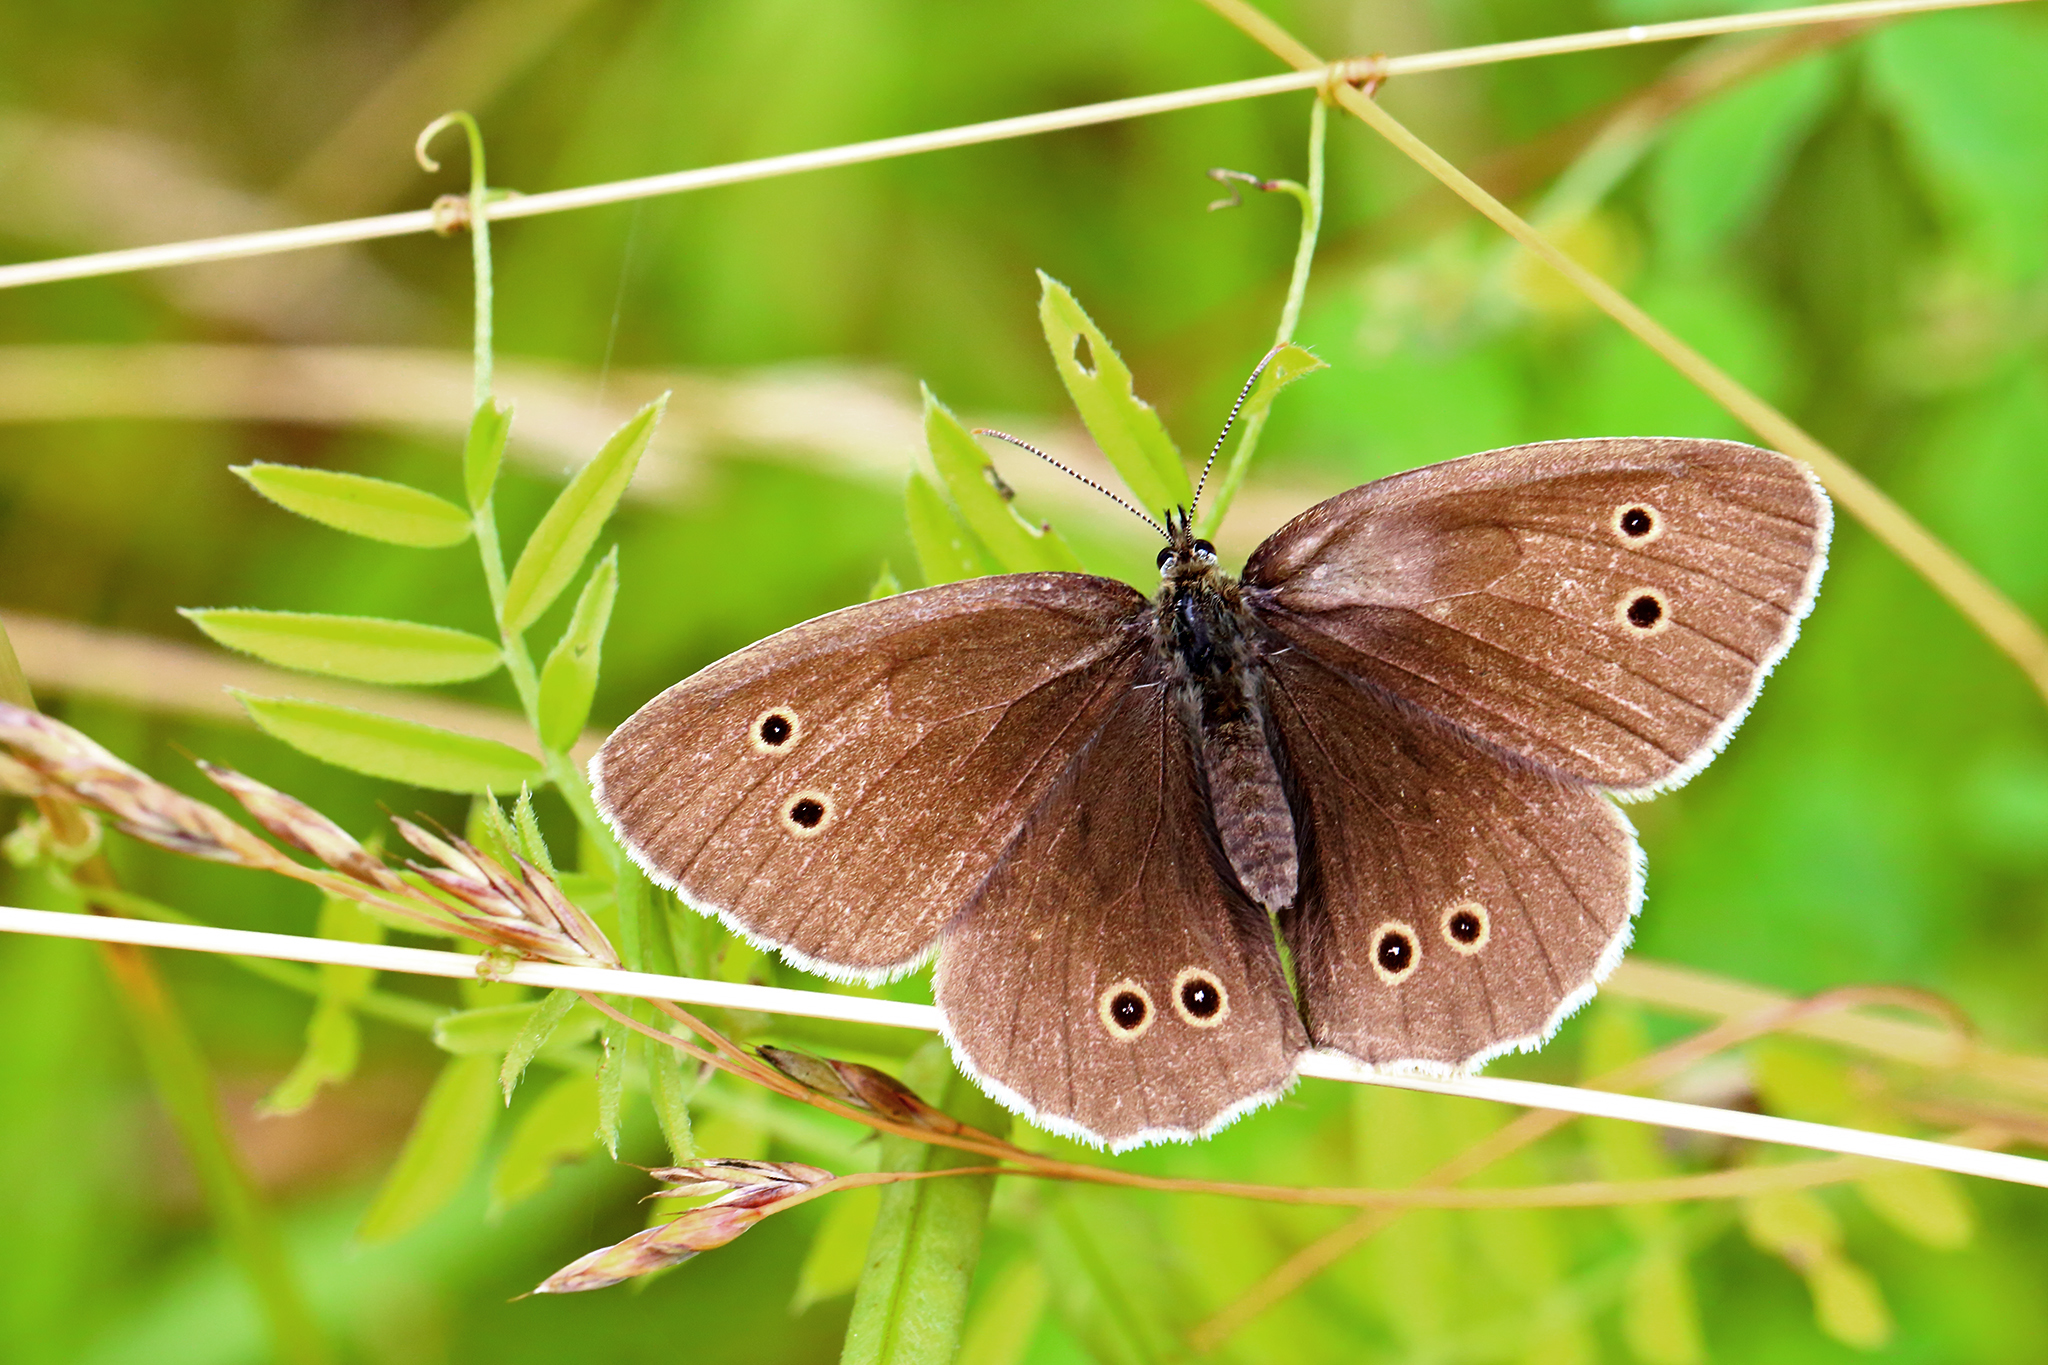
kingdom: Animalia
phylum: Arthropoda
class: Insecta
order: Lepidoptera
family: Nymphalidae
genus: Aphantopus
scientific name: Aphantopus hyperantus
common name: Ringlet
